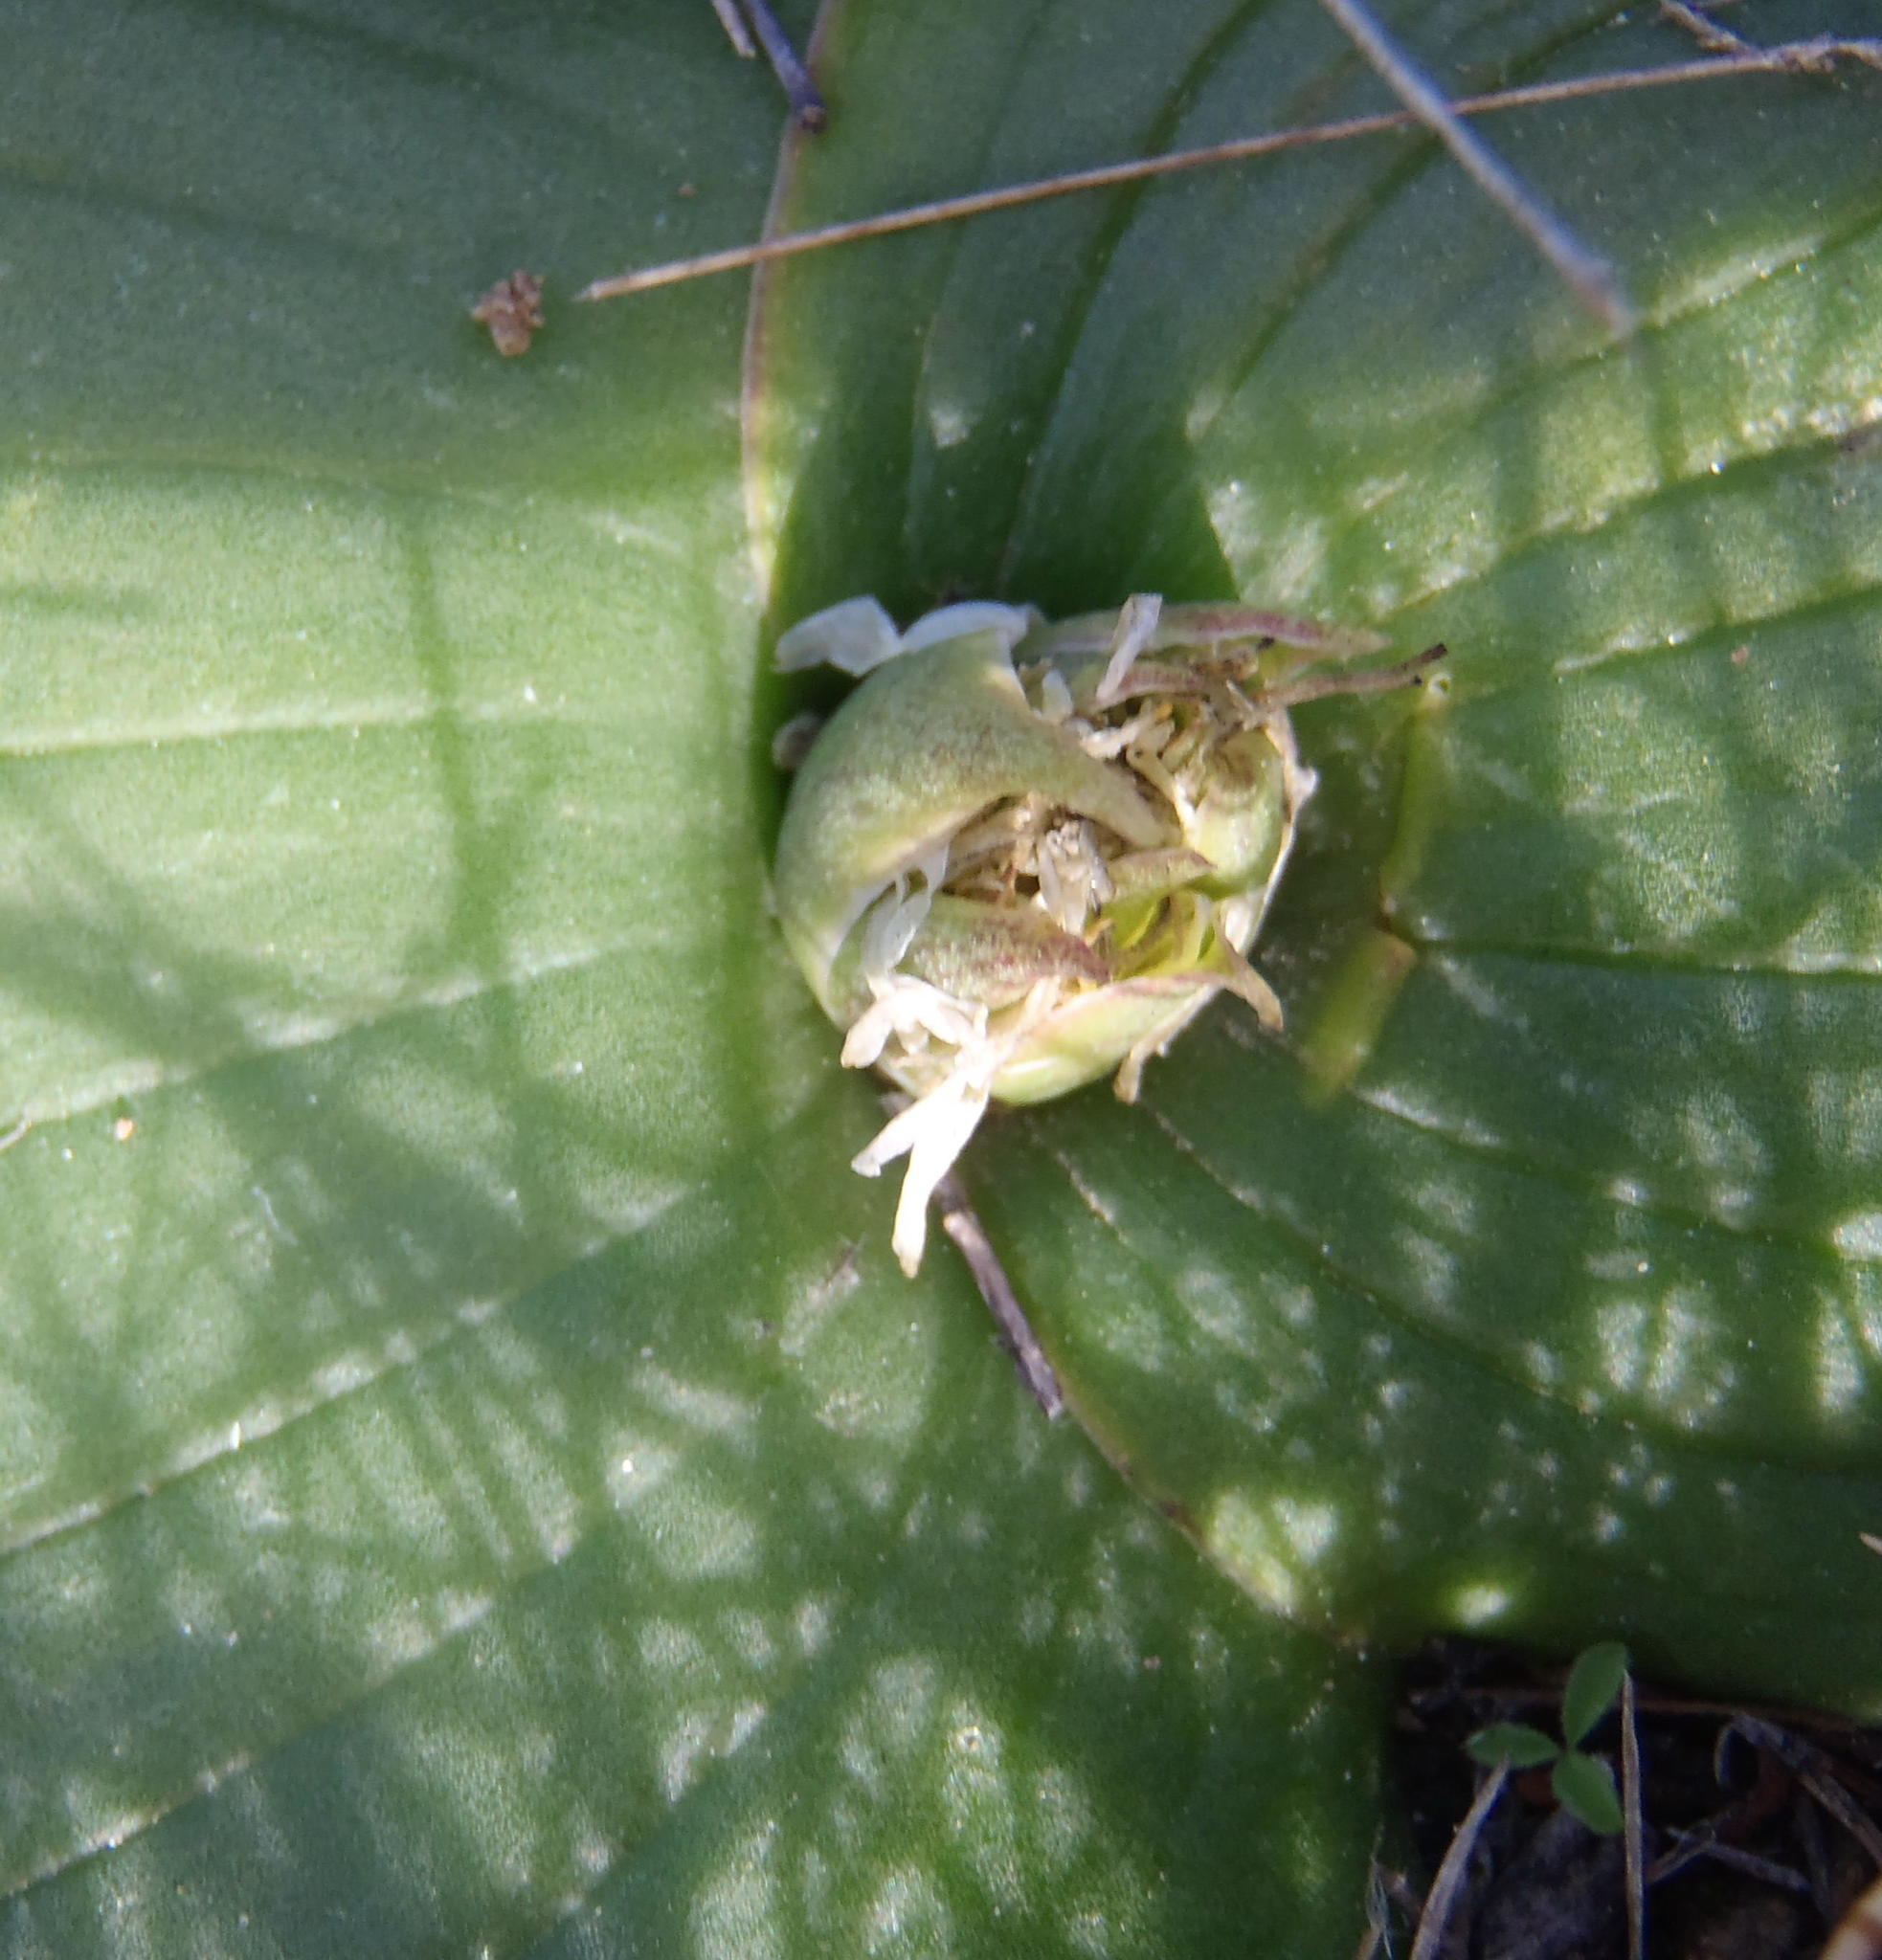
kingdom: Plantae
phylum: Tracheophyta
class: Liliopsida
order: Asparagales
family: Asparagaceae
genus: Massonia
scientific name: Massonia depressa
